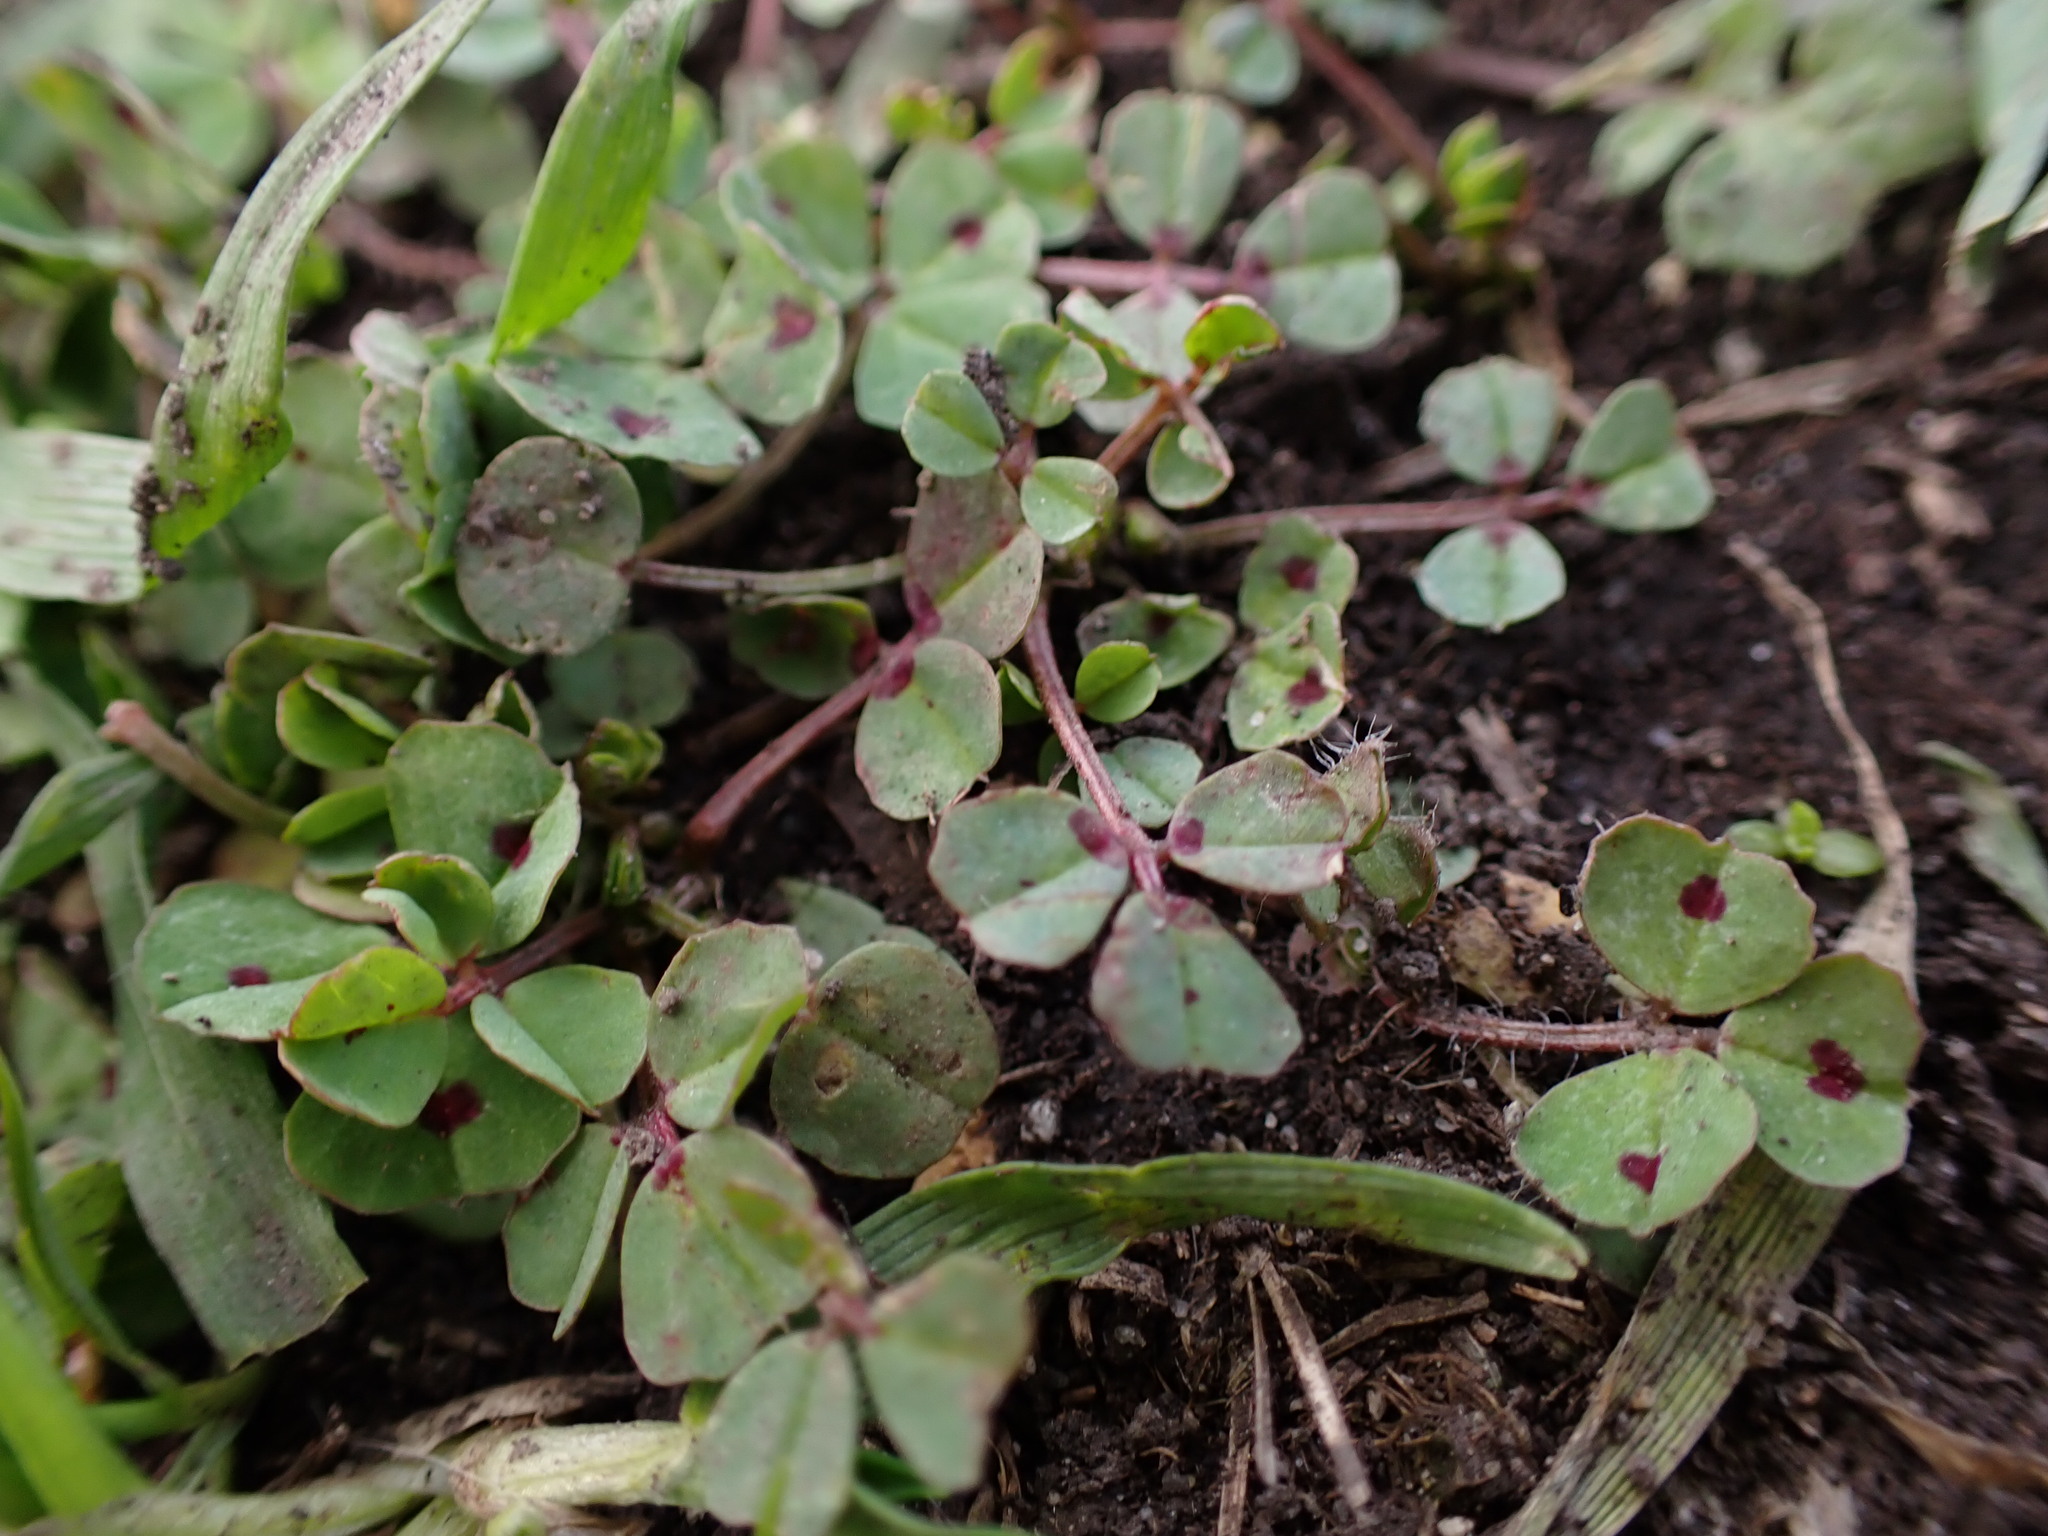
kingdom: Plantae
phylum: Tracheophyta
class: Magnoliopsida
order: Fabales
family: Fabaceae
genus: Medicago
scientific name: Medicago arabica
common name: Spotted medick
